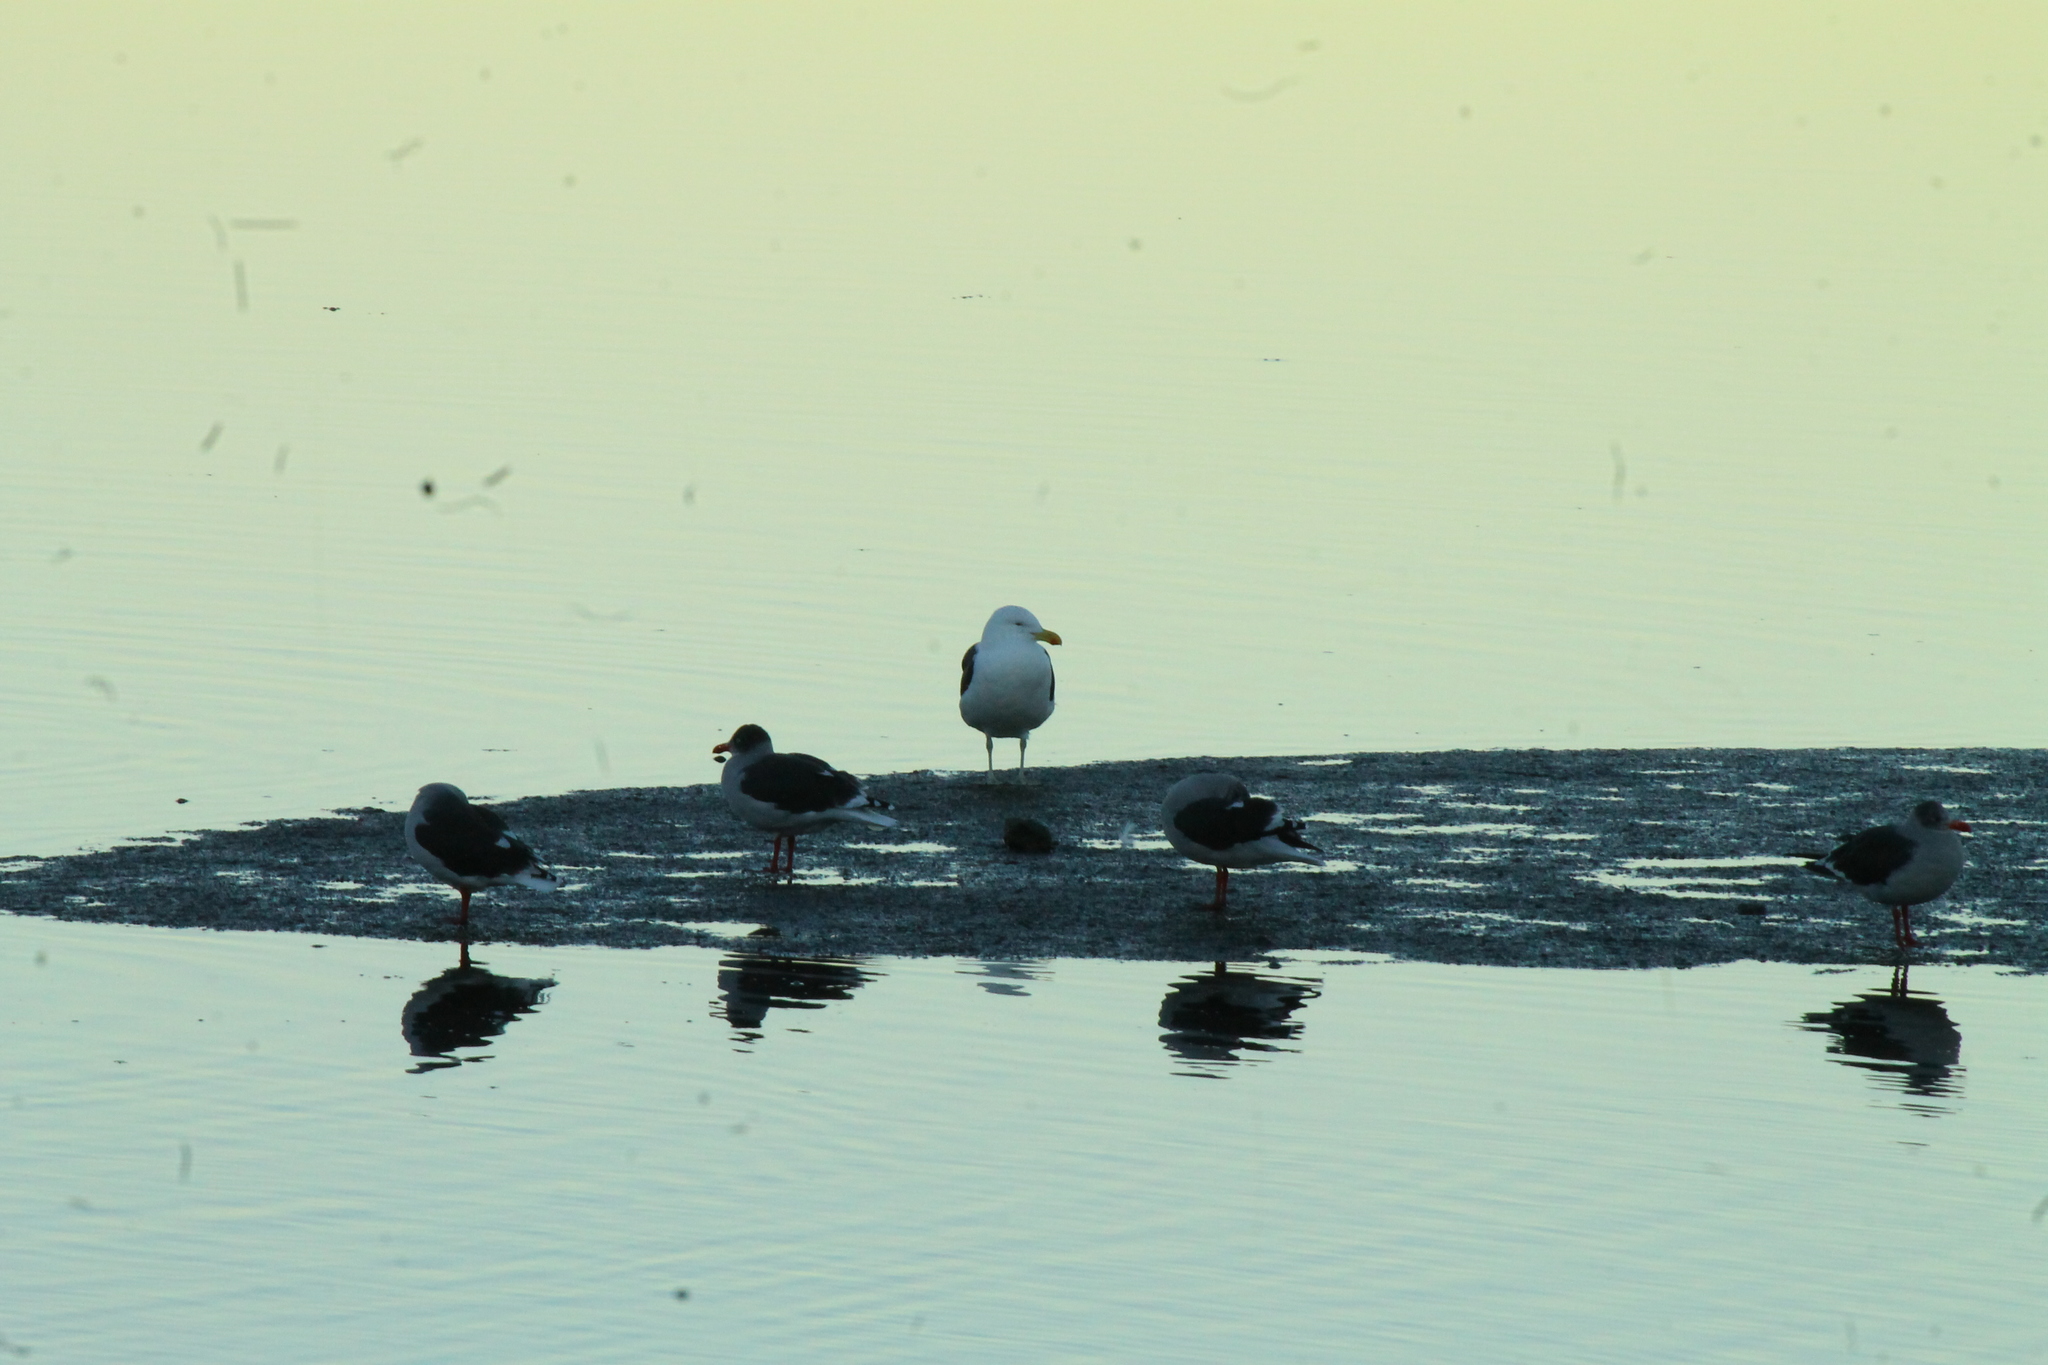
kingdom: Animalia
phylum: Chordata
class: Aves
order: Charadriiformes
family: Laridae
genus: Larus
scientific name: Larus dominicanus
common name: Kelp gull
